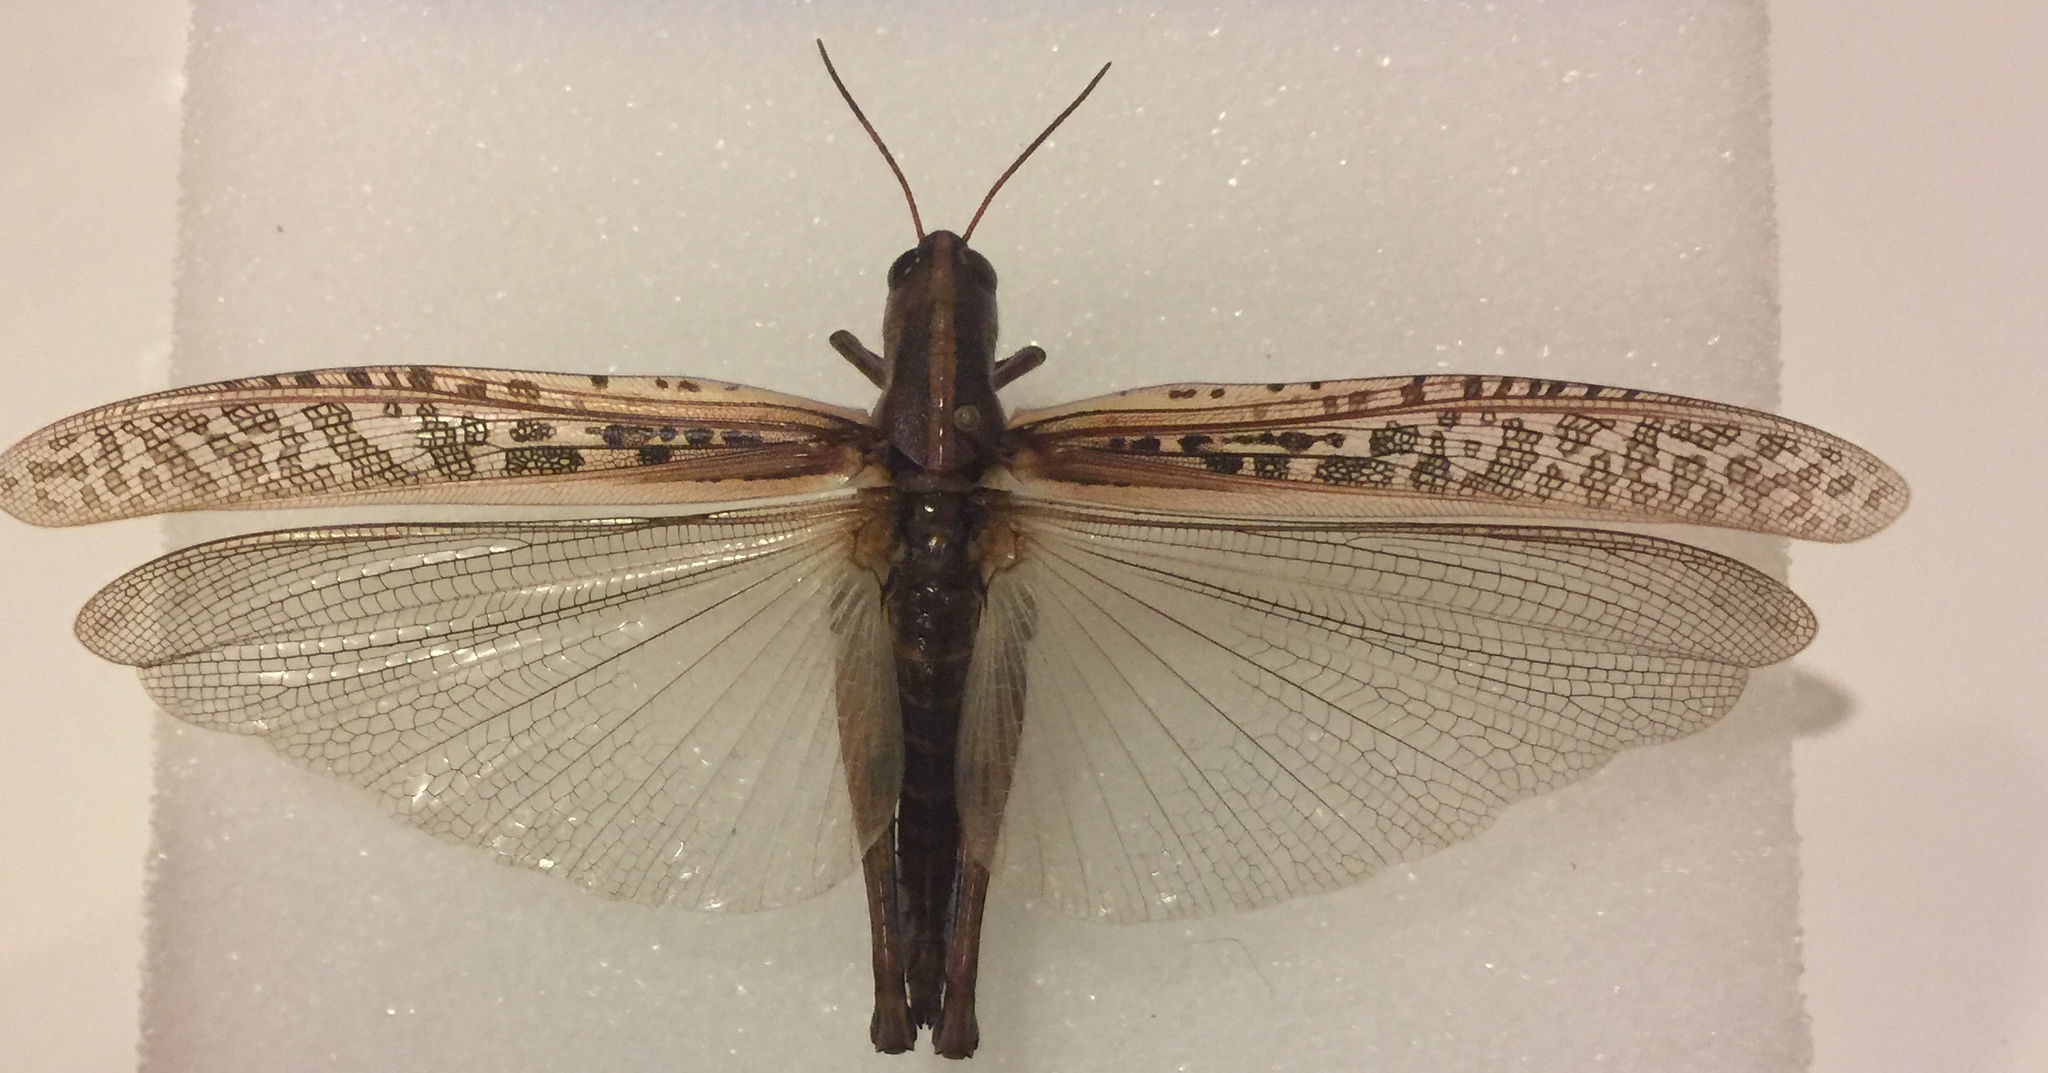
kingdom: Animalia
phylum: Arthropoda
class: Insecta
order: Orthoptera
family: Acrididae
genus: Schistocerca
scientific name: Schistocerca americana
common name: American bird locust
